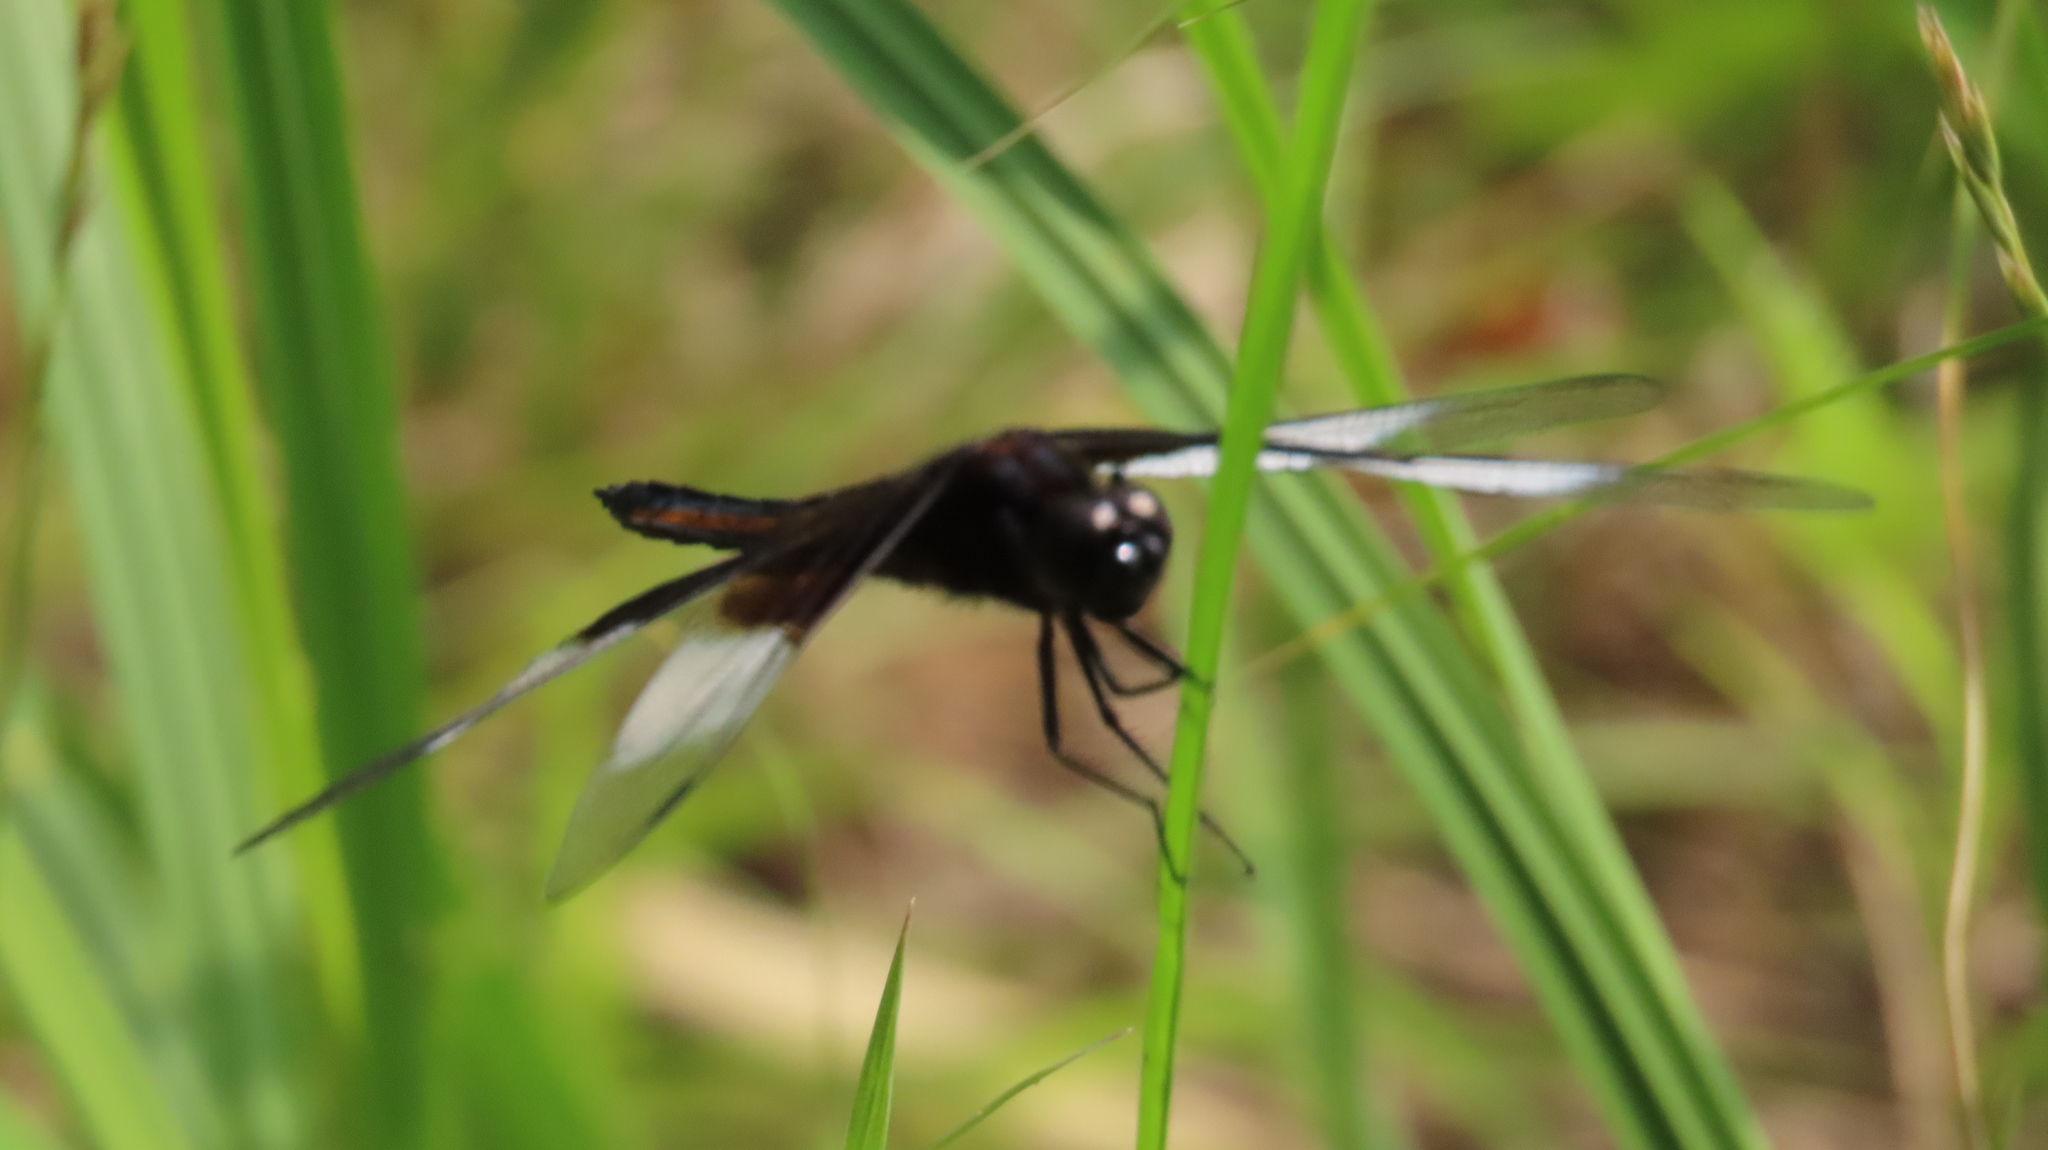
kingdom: Animalia
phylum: Arthropoda
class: Insecta
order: Odonata
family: Libellulidae
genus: Libellula
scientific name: Libellula luctuosa
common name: Widow skimmer
